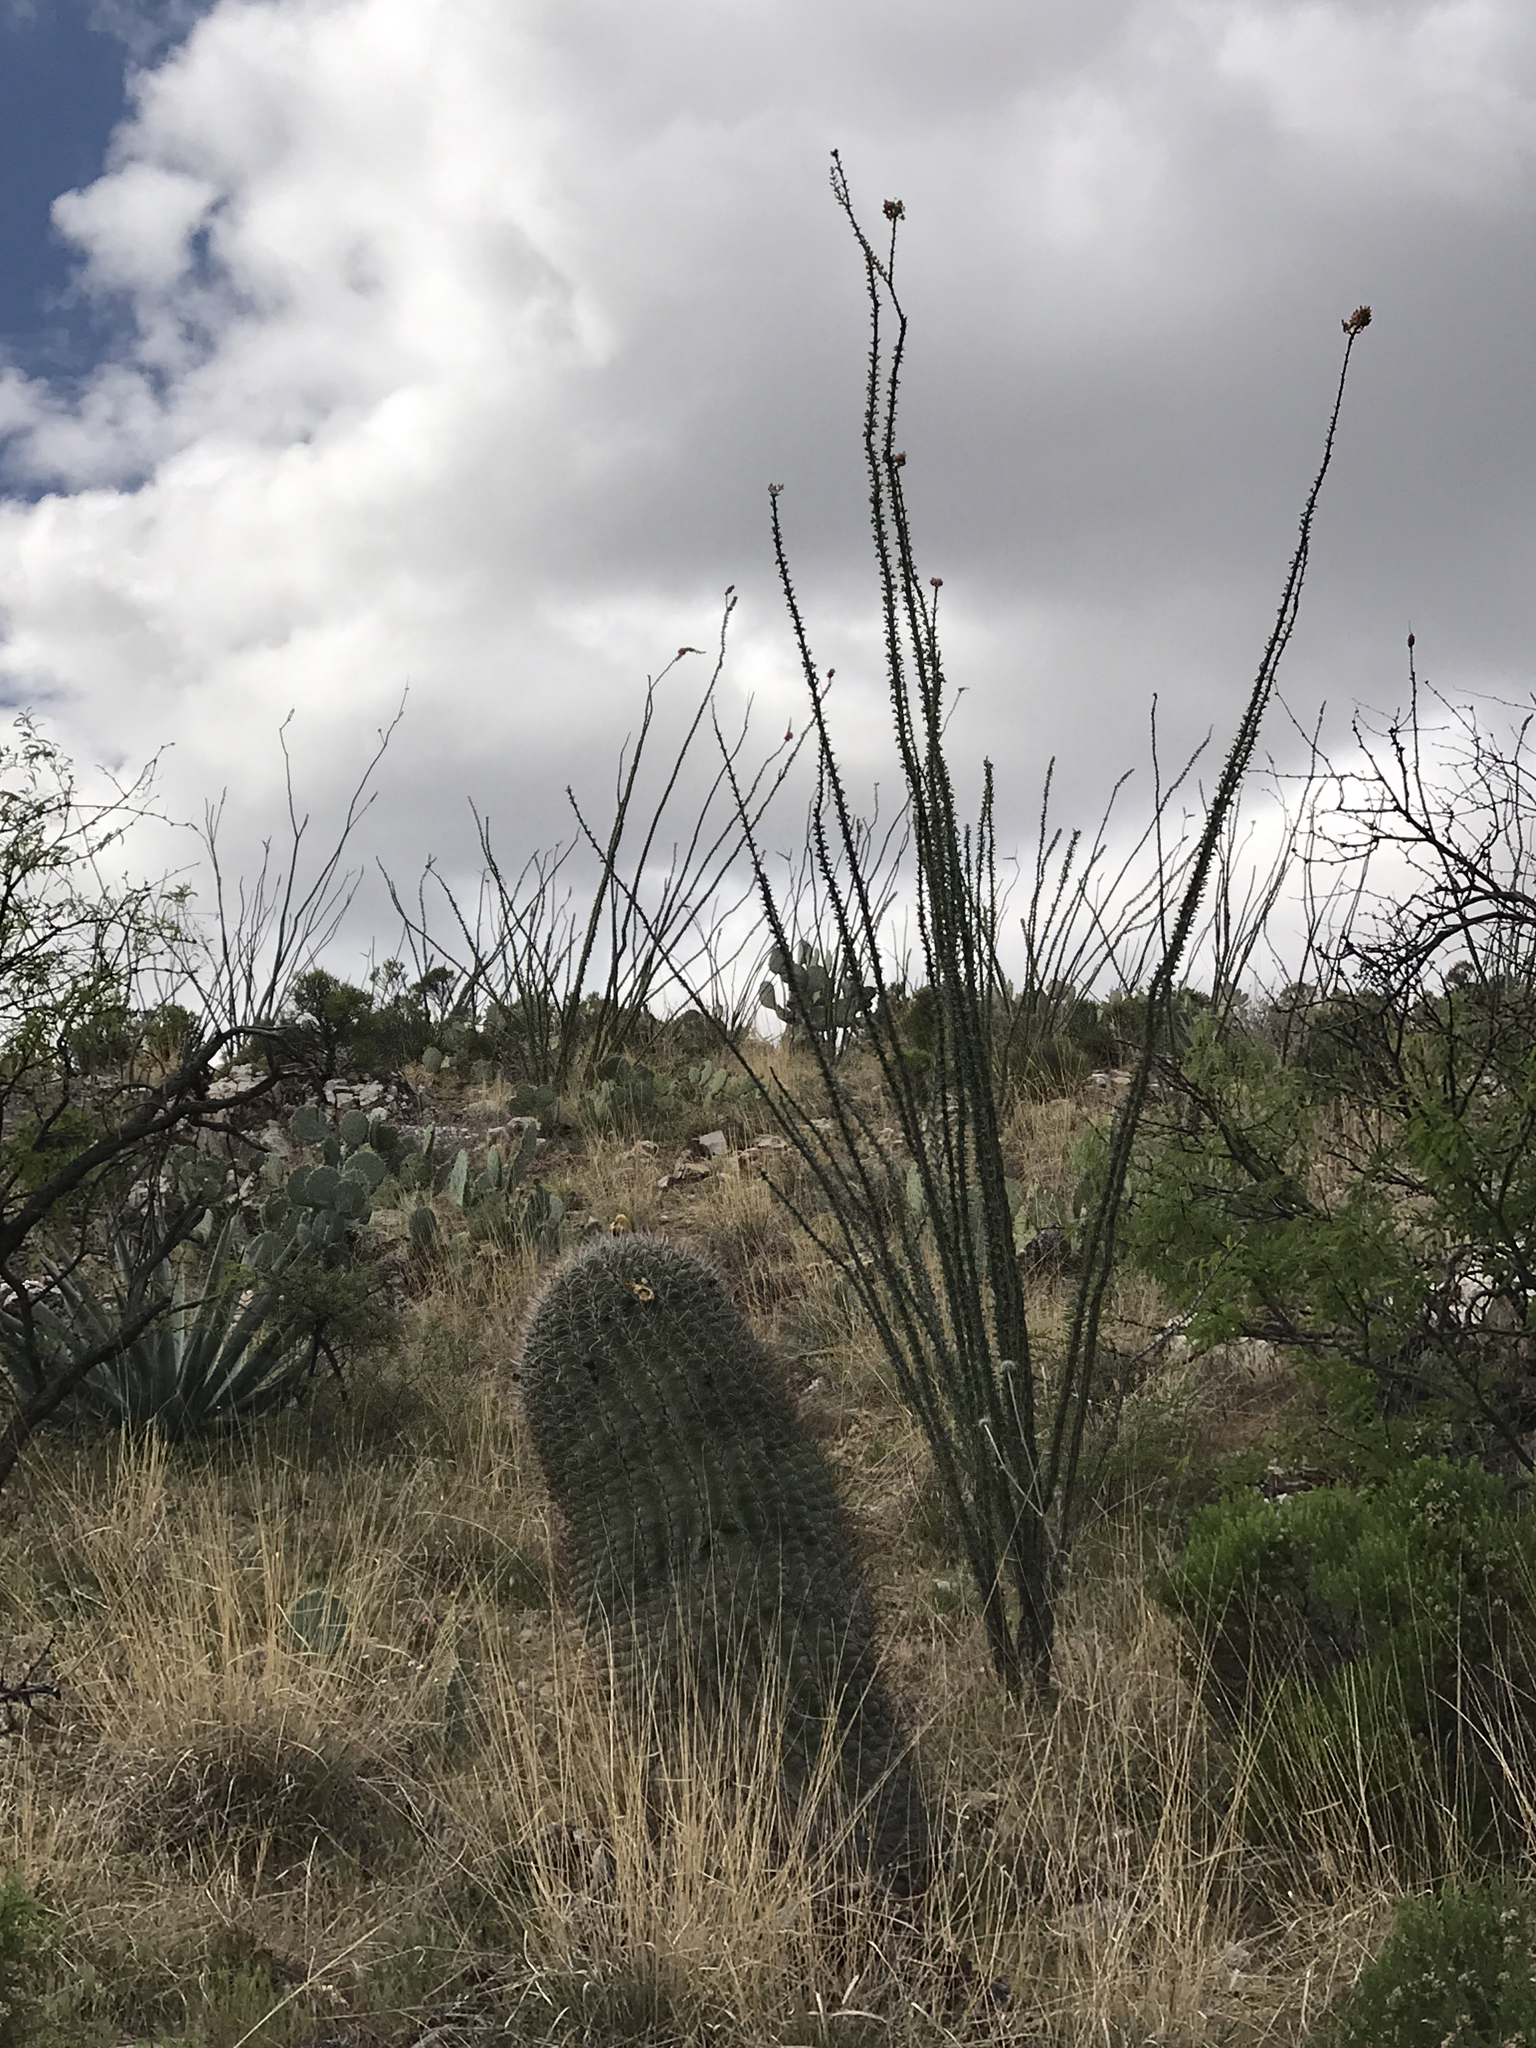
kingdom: Plantae
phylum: Tracheophyta
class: Magnoliopsida
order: Caryophyllales
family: Cactaceae
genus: Ferocactus
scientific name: Ferocactus wislizeni
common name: Candy barrel cactus
